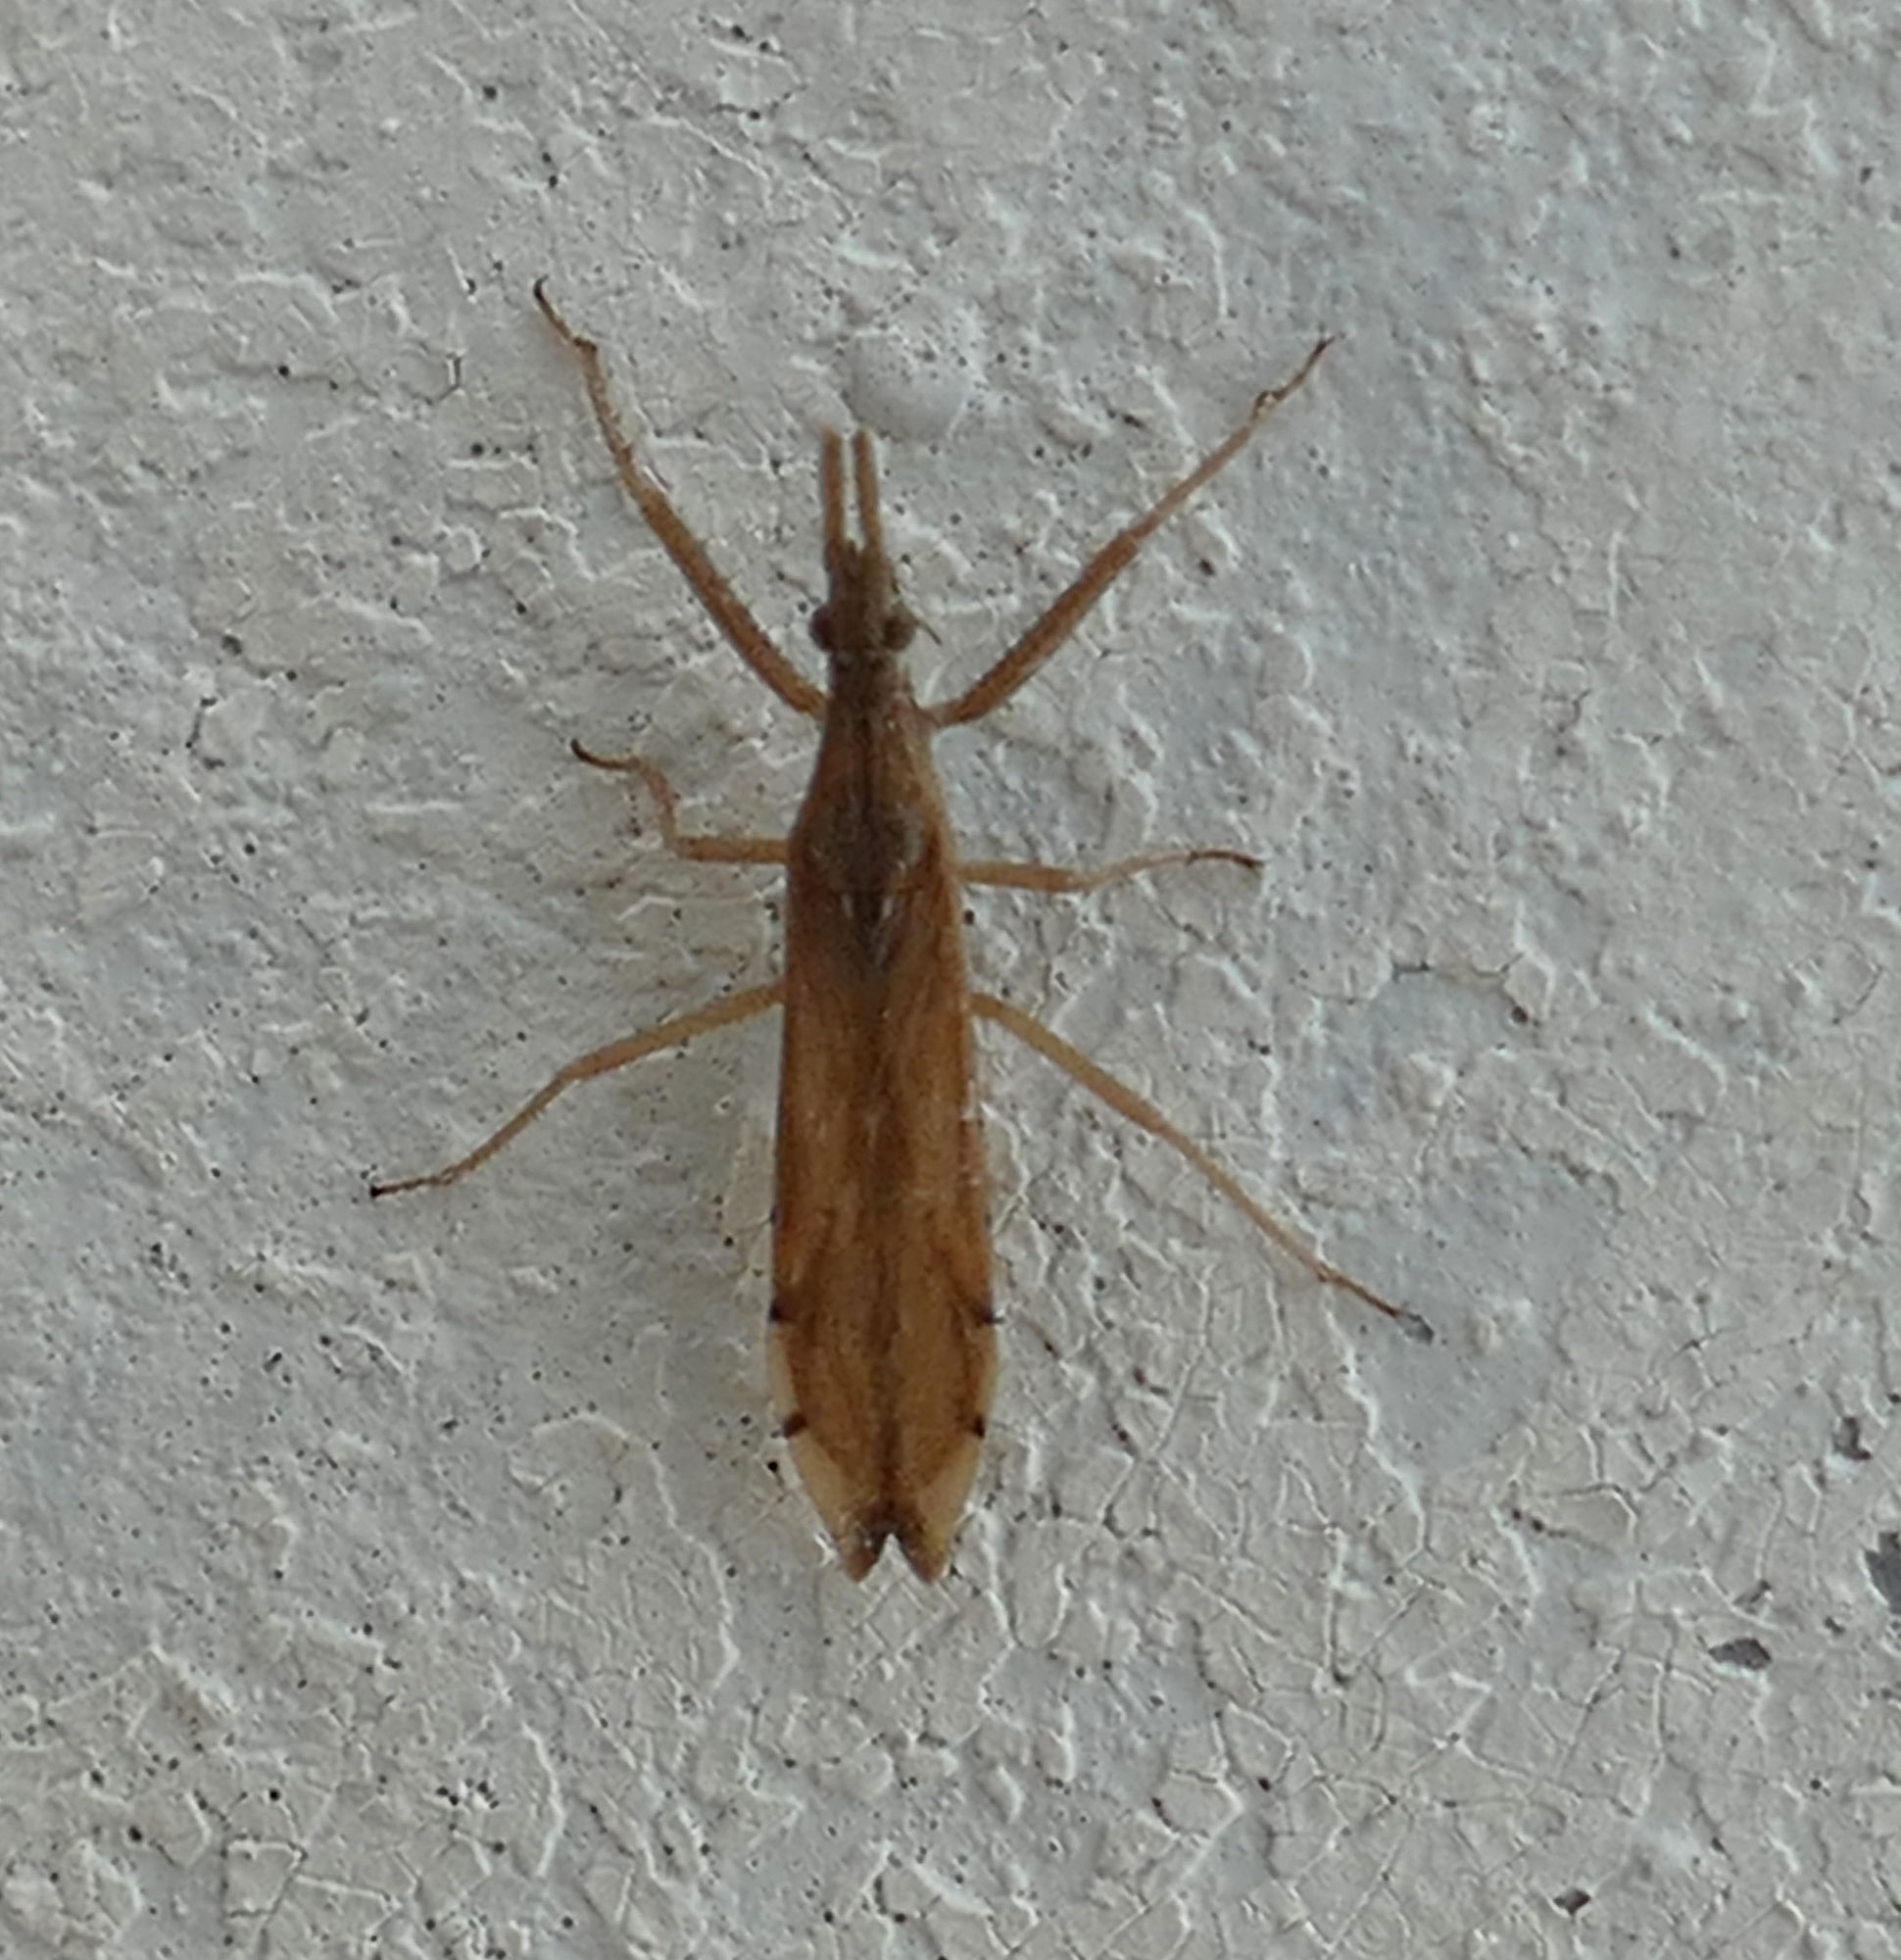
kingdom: Animalia
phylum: Arthropoda
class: Insecta
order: Hemiptera
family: Reduviidae
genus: Pnirontis
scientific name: Pnirontis infirma
